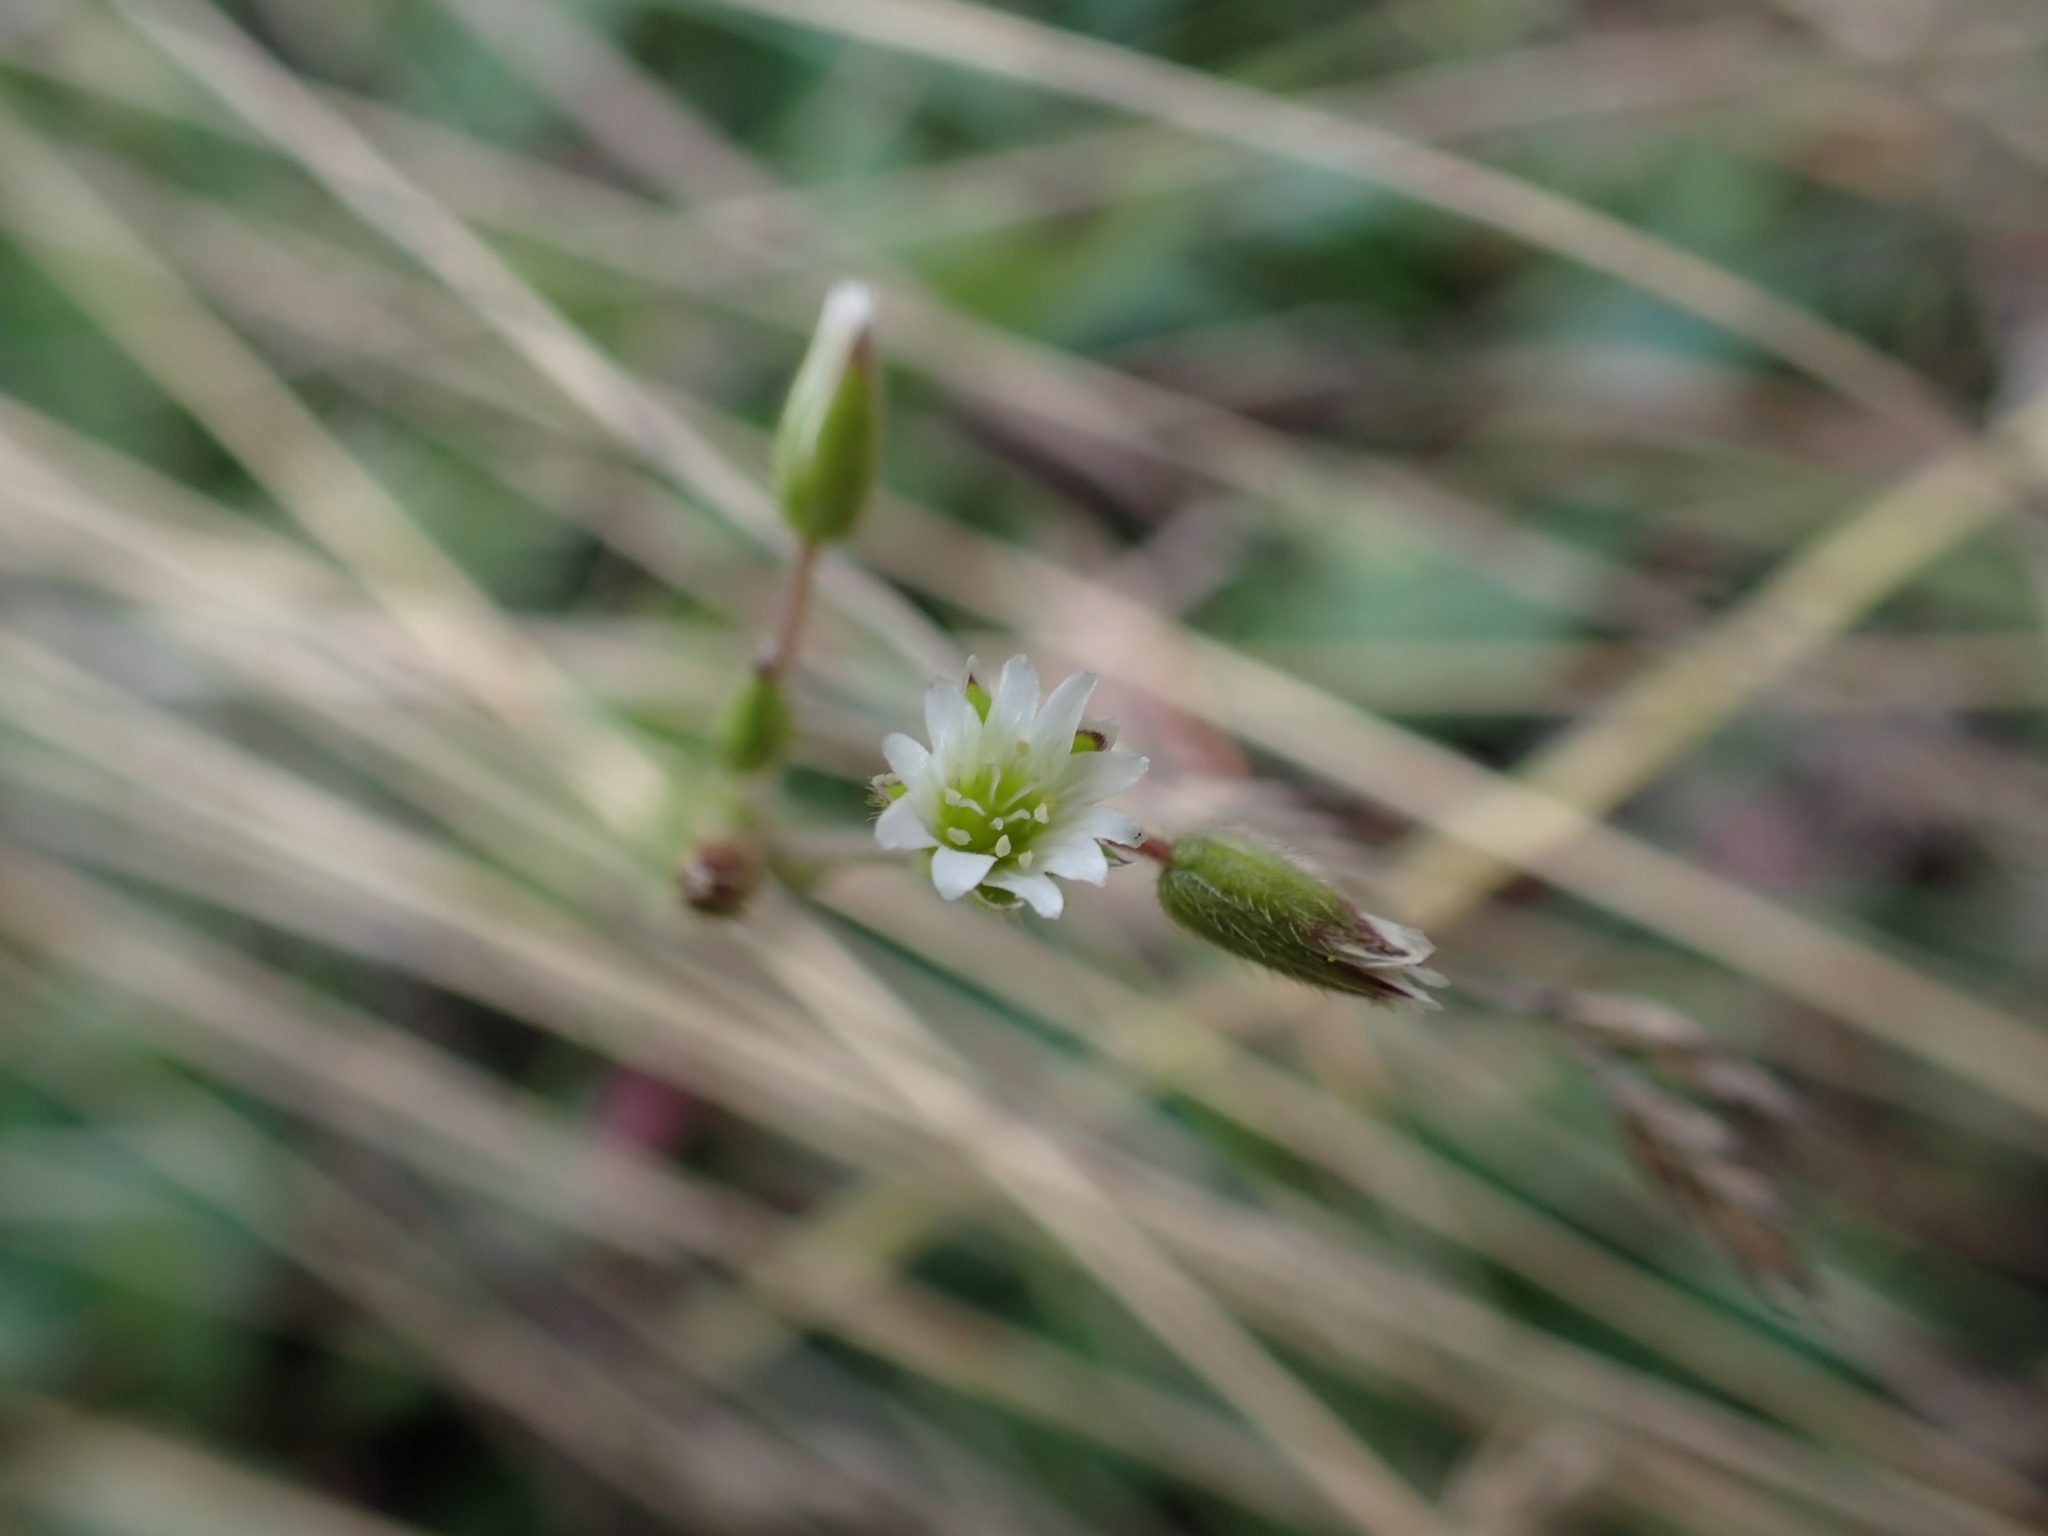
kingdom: Plantae
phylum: Tracheophyta
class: Magnoliopsida
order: Caryophyllales
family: Caryophyllaceae
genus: Cerastium
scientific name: Cerastium fontanum
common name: Common mouse-ear
